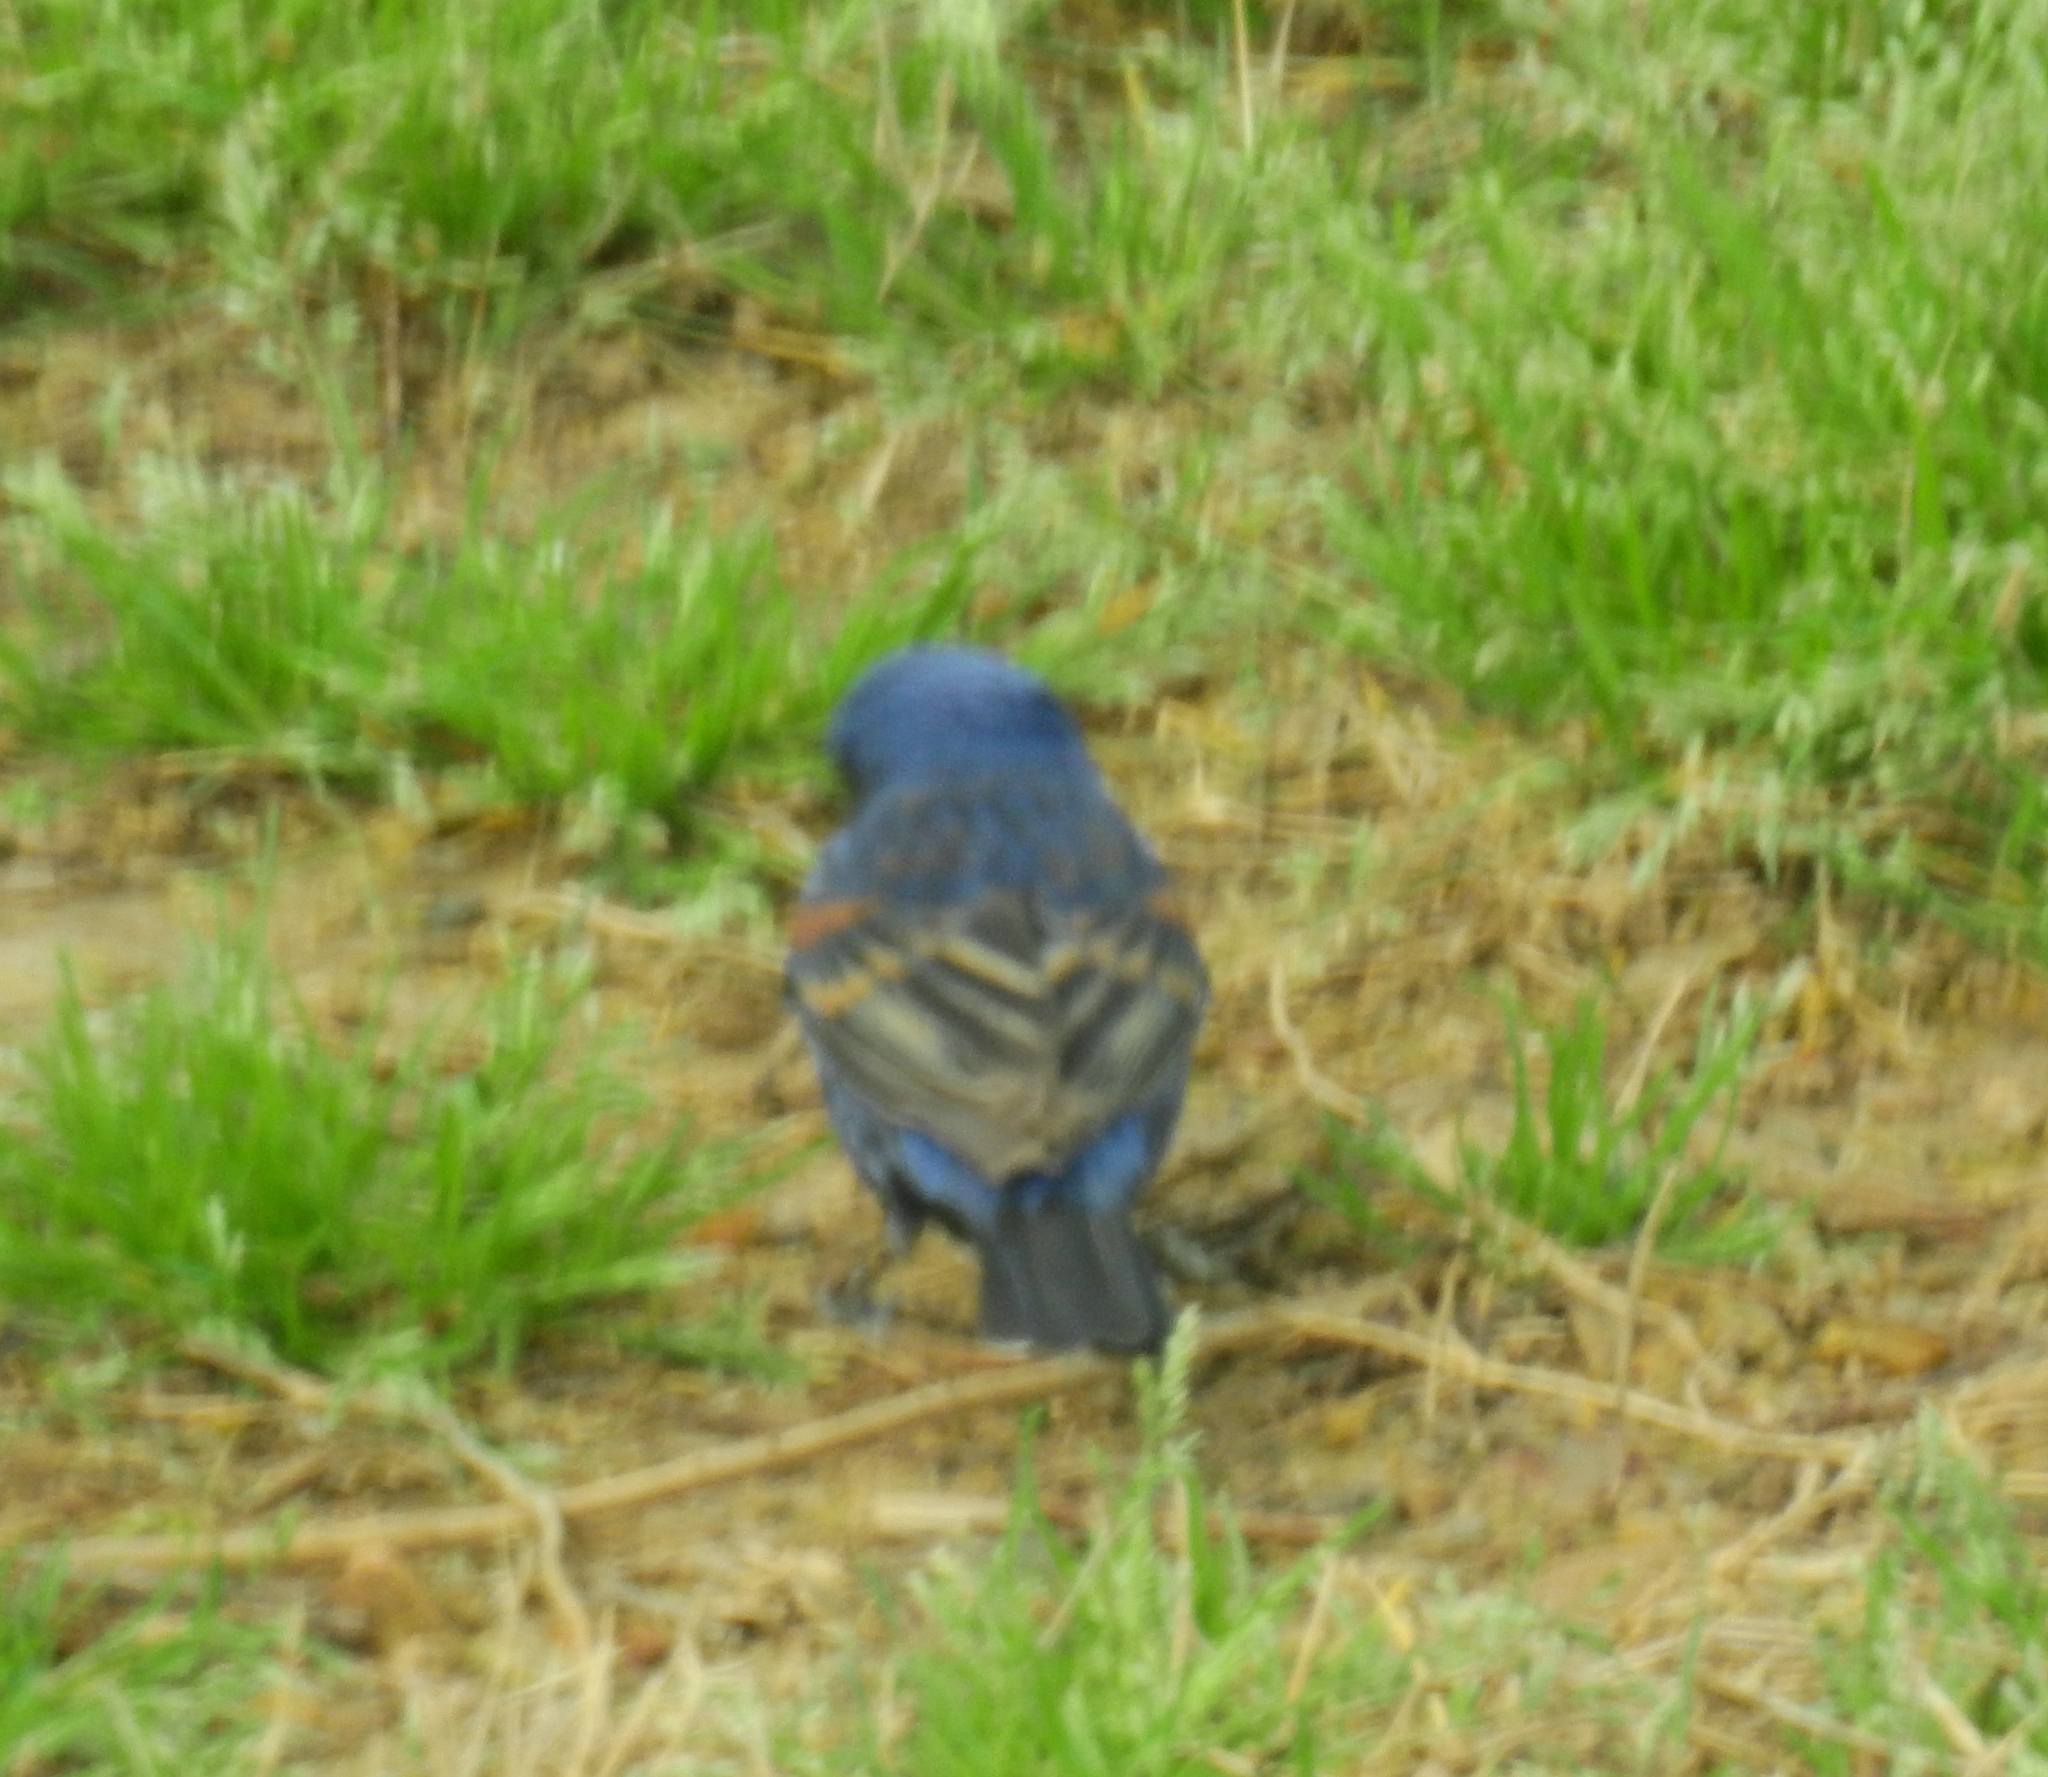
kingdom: Animalia
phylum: Chordata
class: Aves
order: Passeriformes
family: Cardinalidae
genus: Passerina
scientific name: Passerina caerulea
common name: Blue grosbeak
